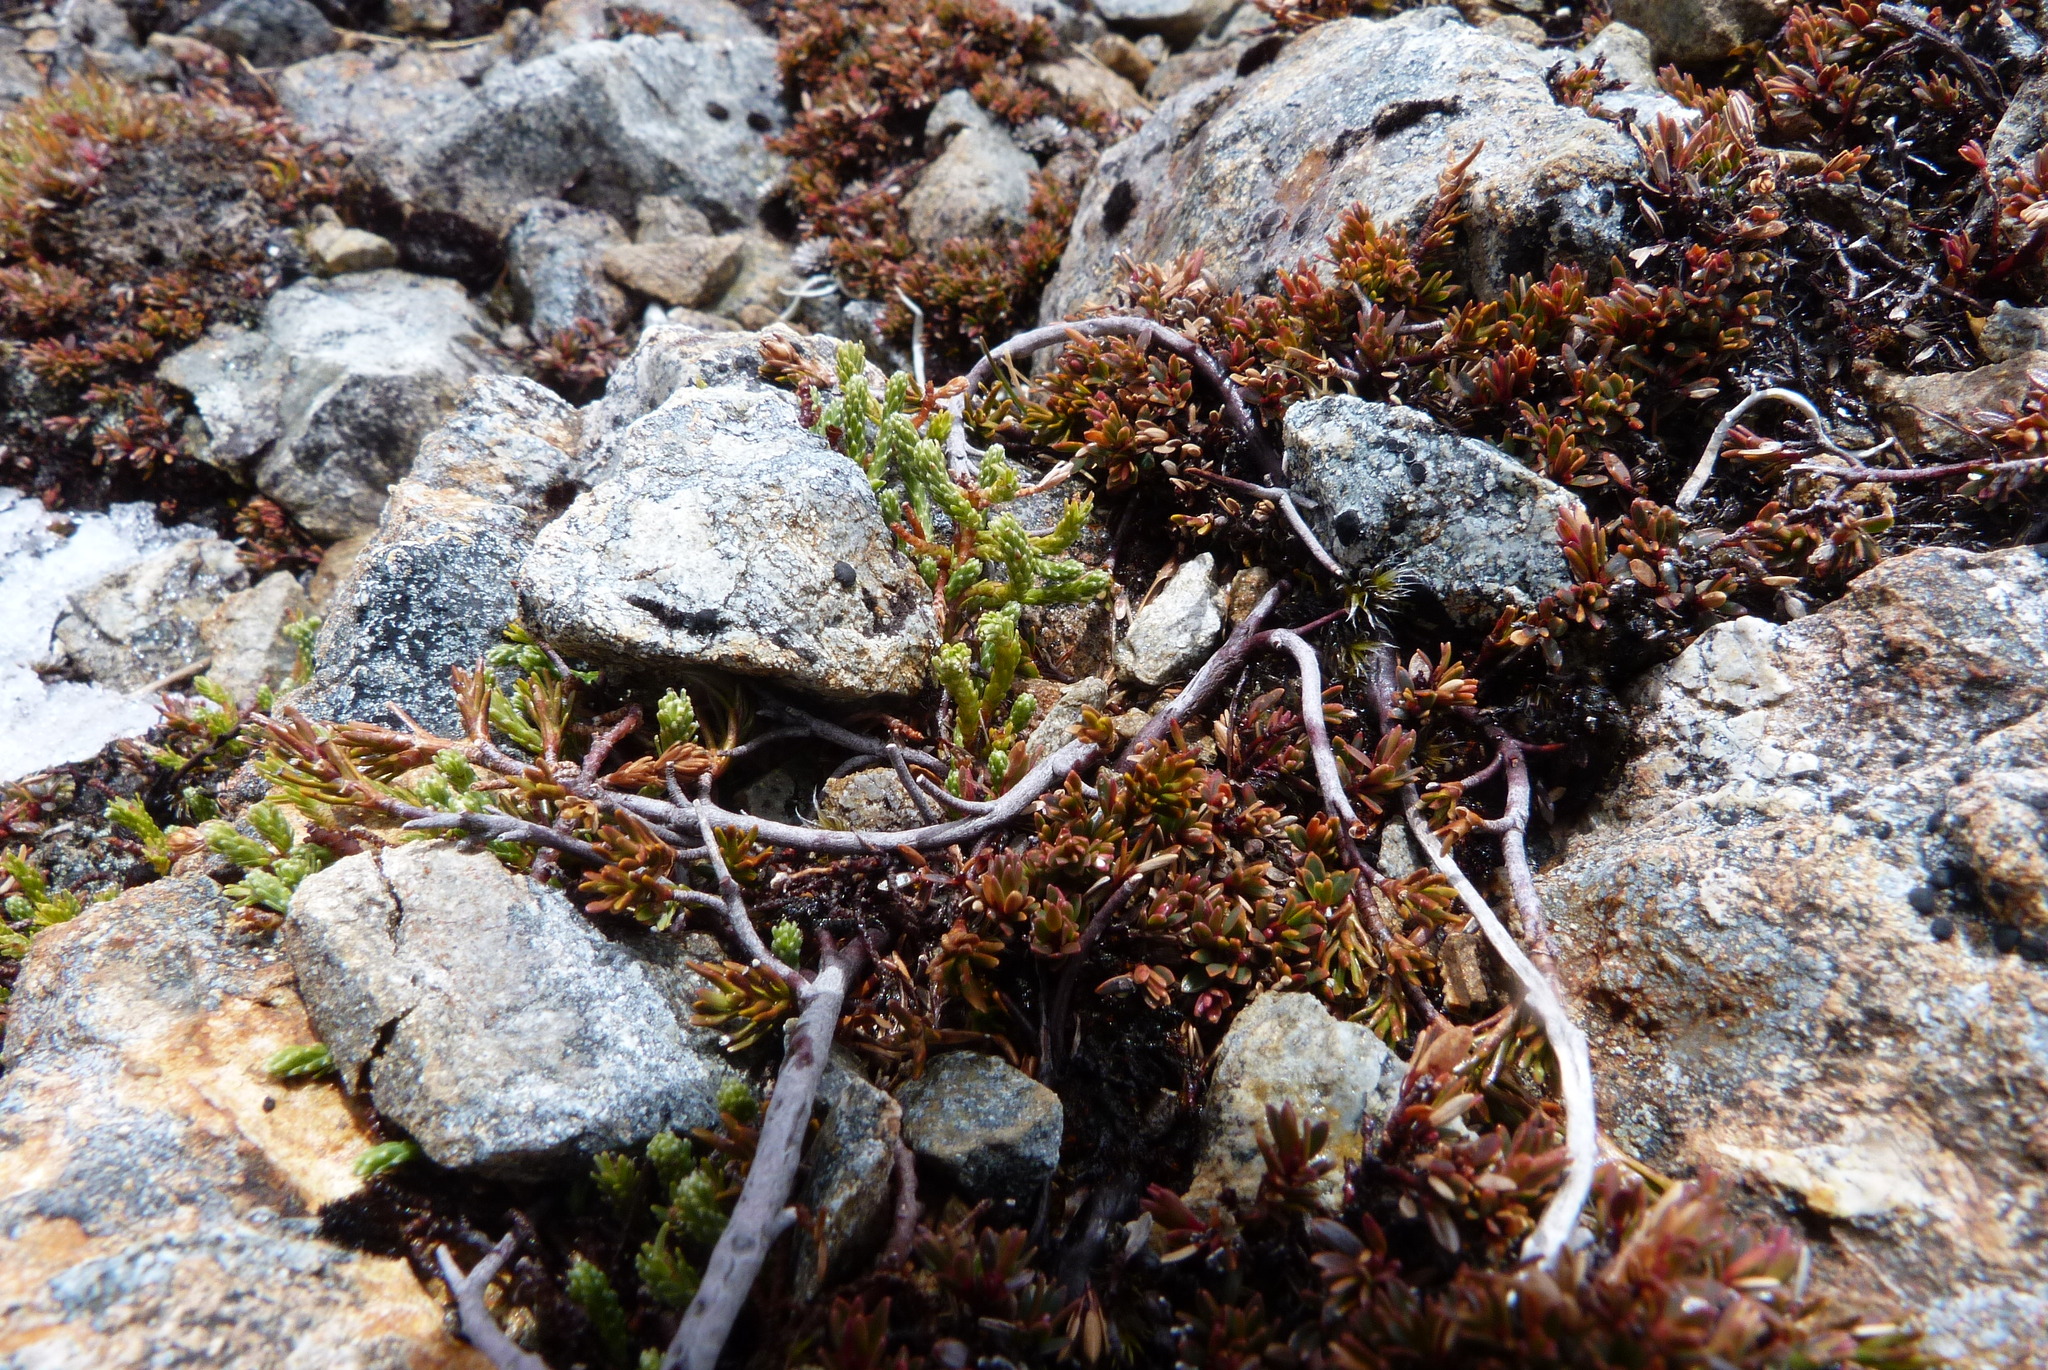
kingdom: Plantae
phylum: Tracheophyta
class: Magnoliopsida
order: Ericales
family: Ericaceae
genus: Pentachondra
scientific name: Pentachondra pumila
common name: Carpet-heath
